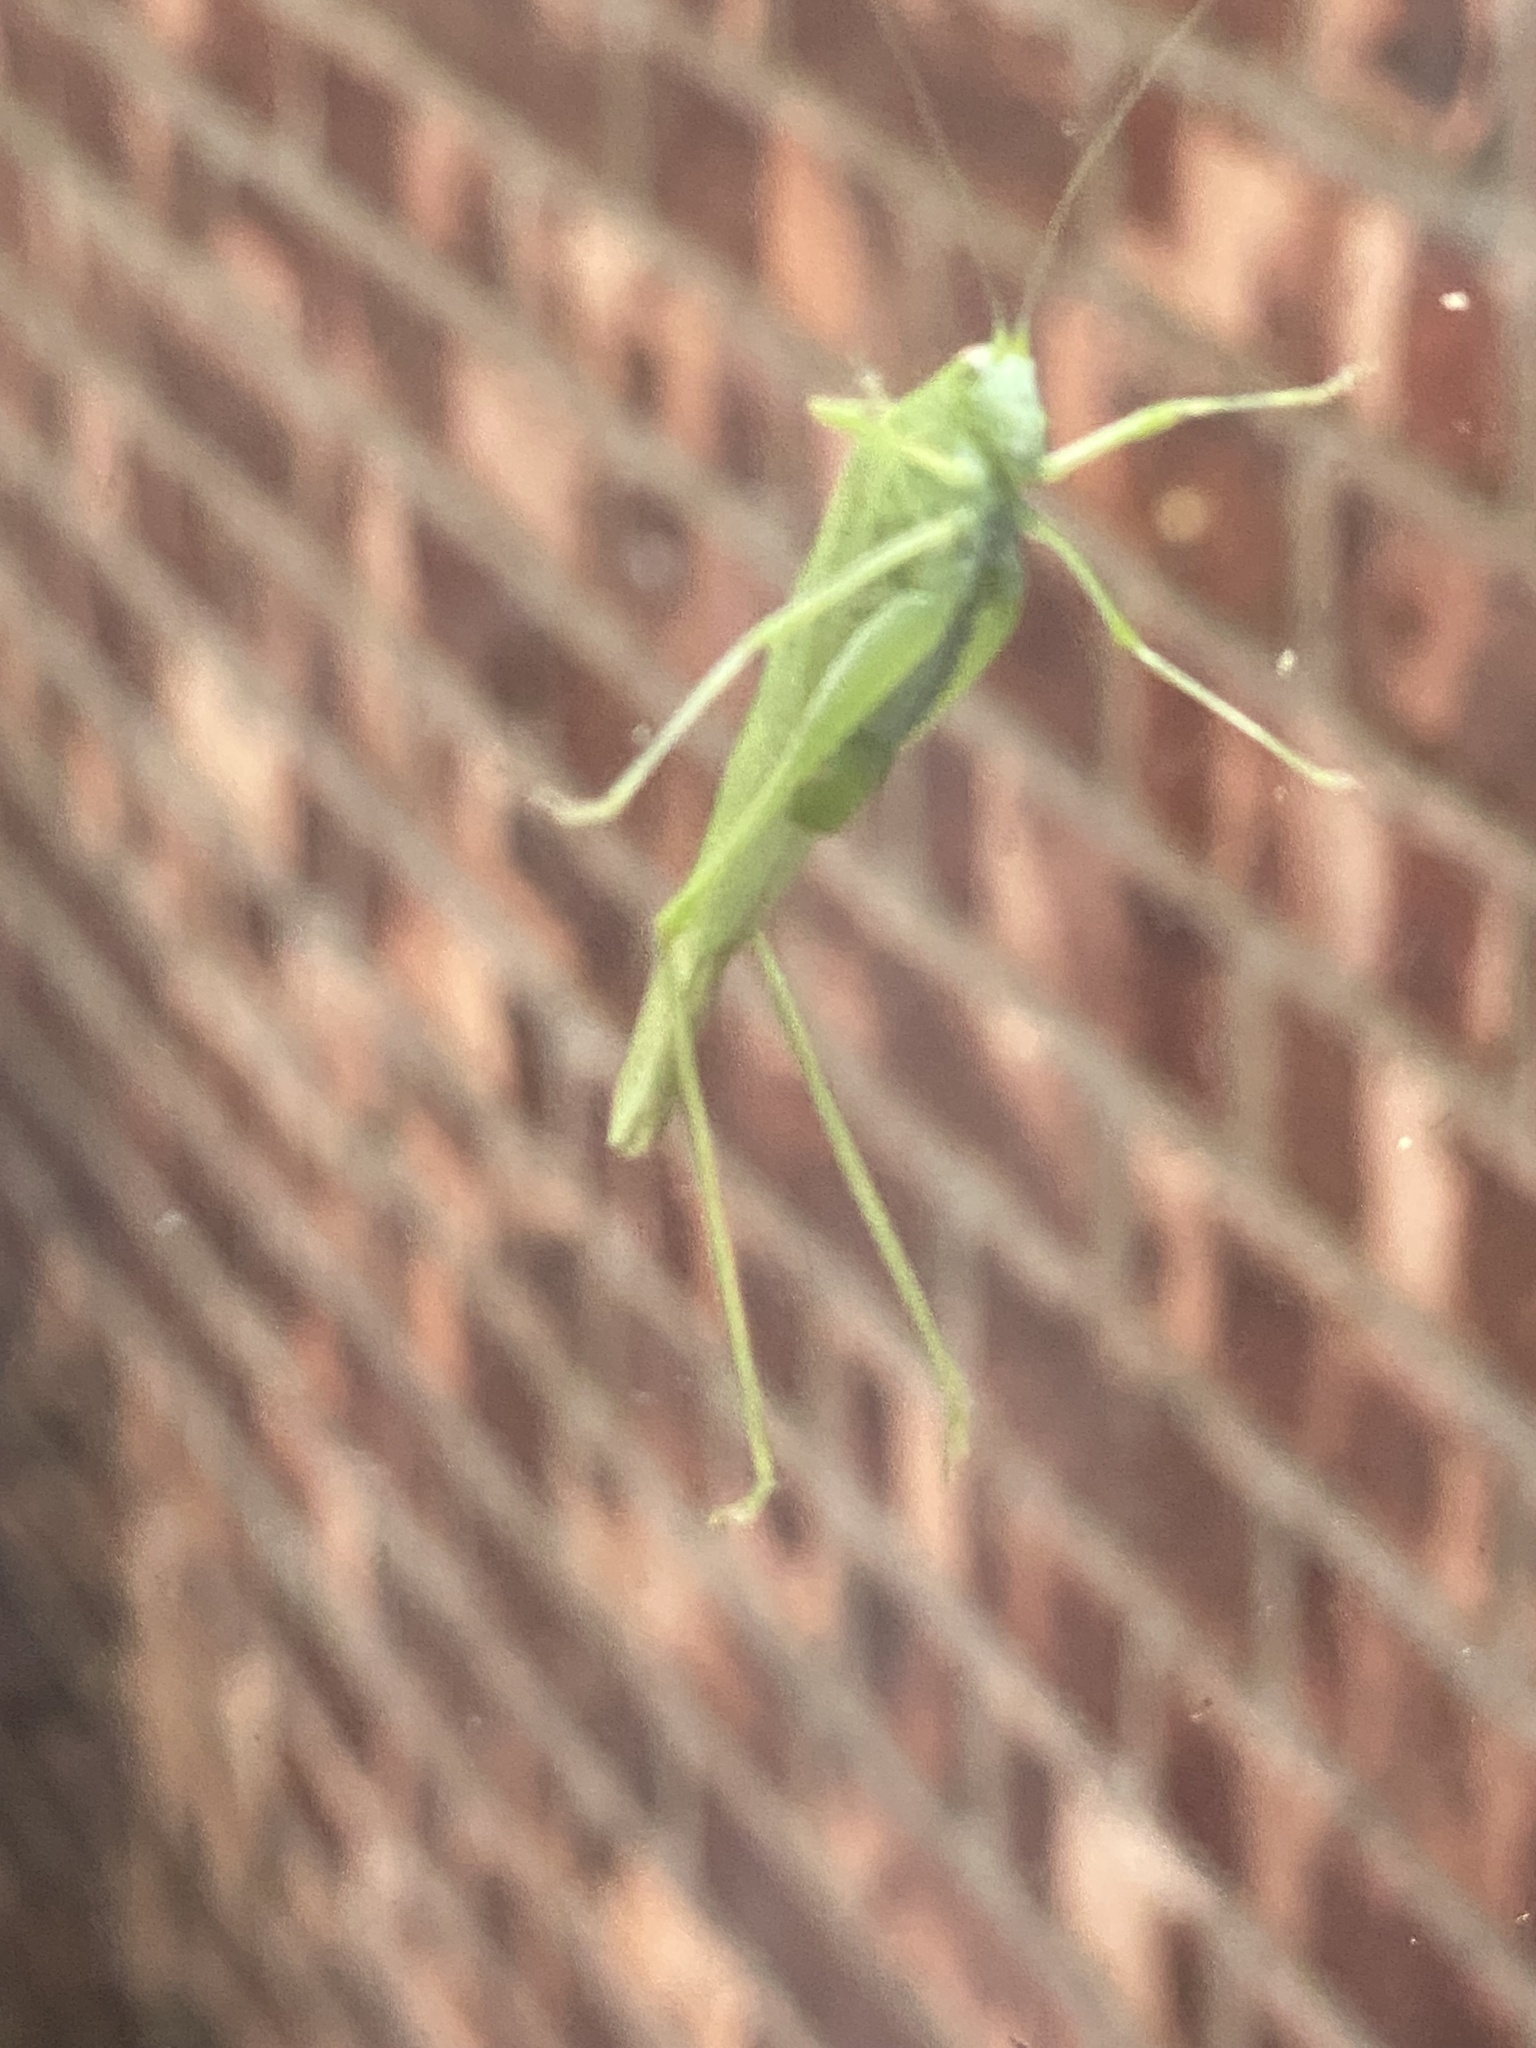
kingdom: Animalia
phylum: Arthropoda
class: Insecta
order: Orthoptera
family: Tettigoniidae
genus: Phaneroptera
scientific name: Phaneroptera nana
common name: Southern sickle bush-cricket
